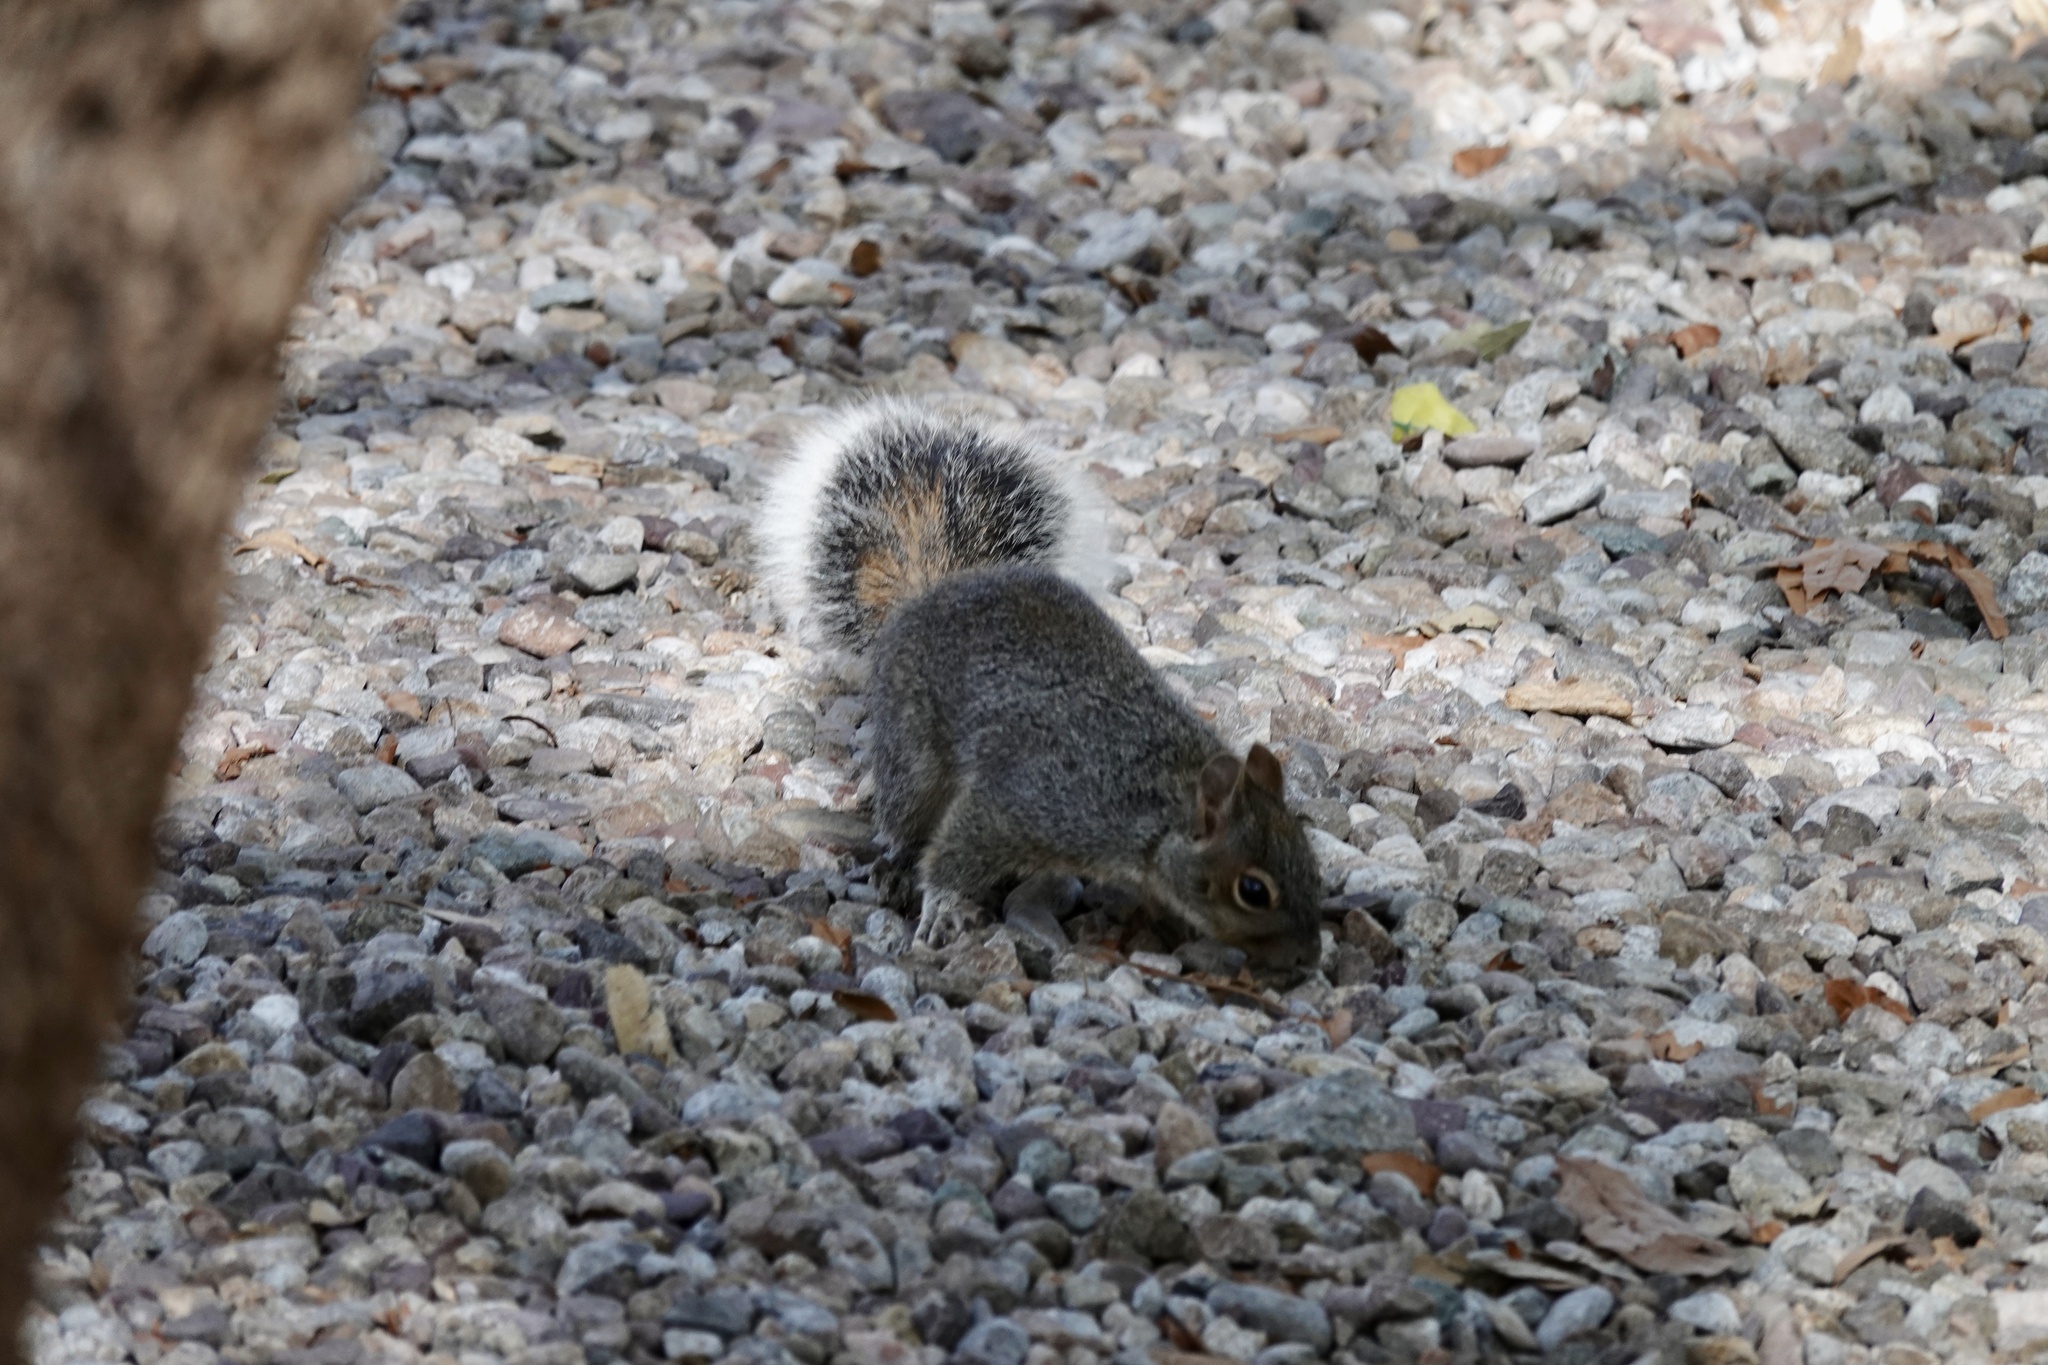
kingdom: Animalia
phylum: Chordata
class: Mammalia
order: Rodentia
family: Sciuridae
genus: Sciurus
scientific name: Sciurus arizonensis
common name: Arizona gray squirrel
